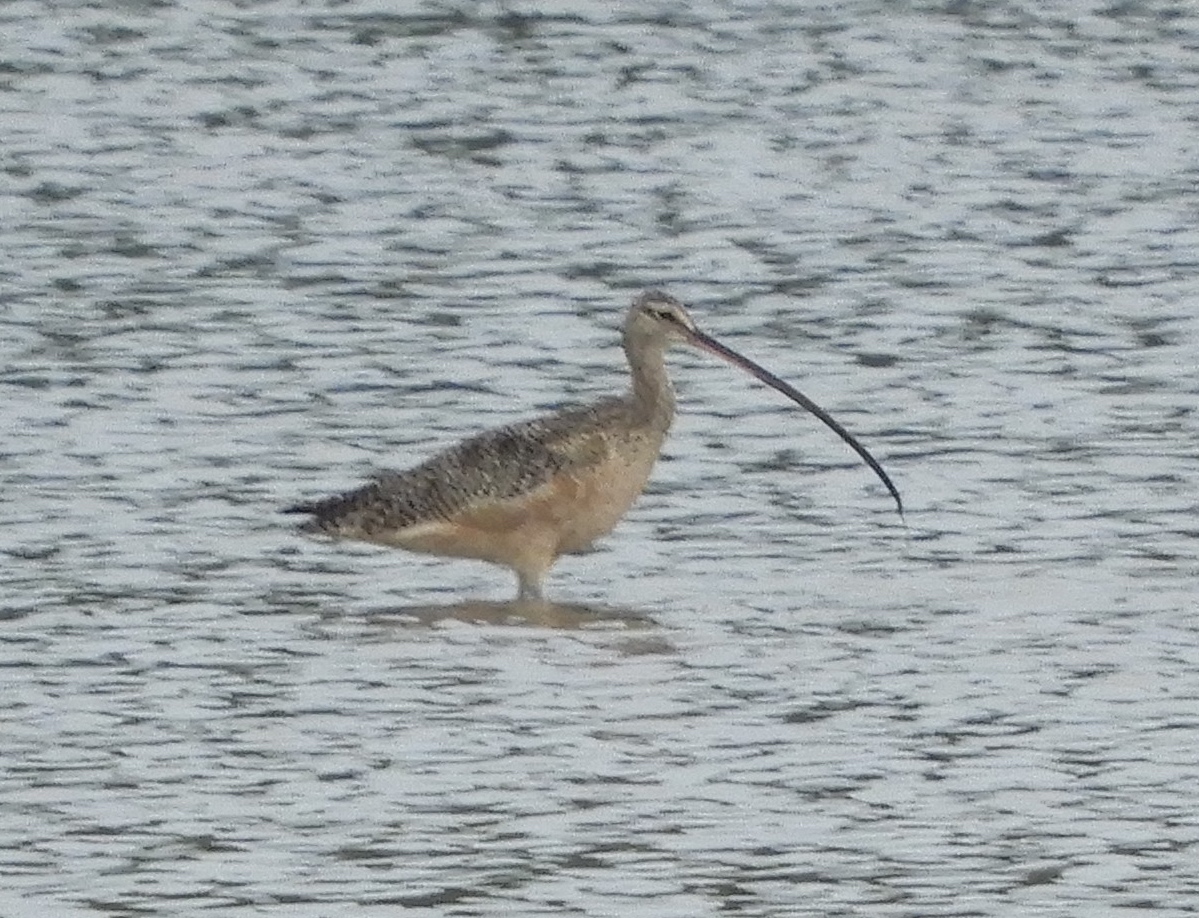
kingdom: Animalia
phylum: Chordata
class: Aves
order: Charadriiformes
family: Scolopacidae
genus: Numenius
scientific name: Numenius americanus
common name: Long-billed curlew
